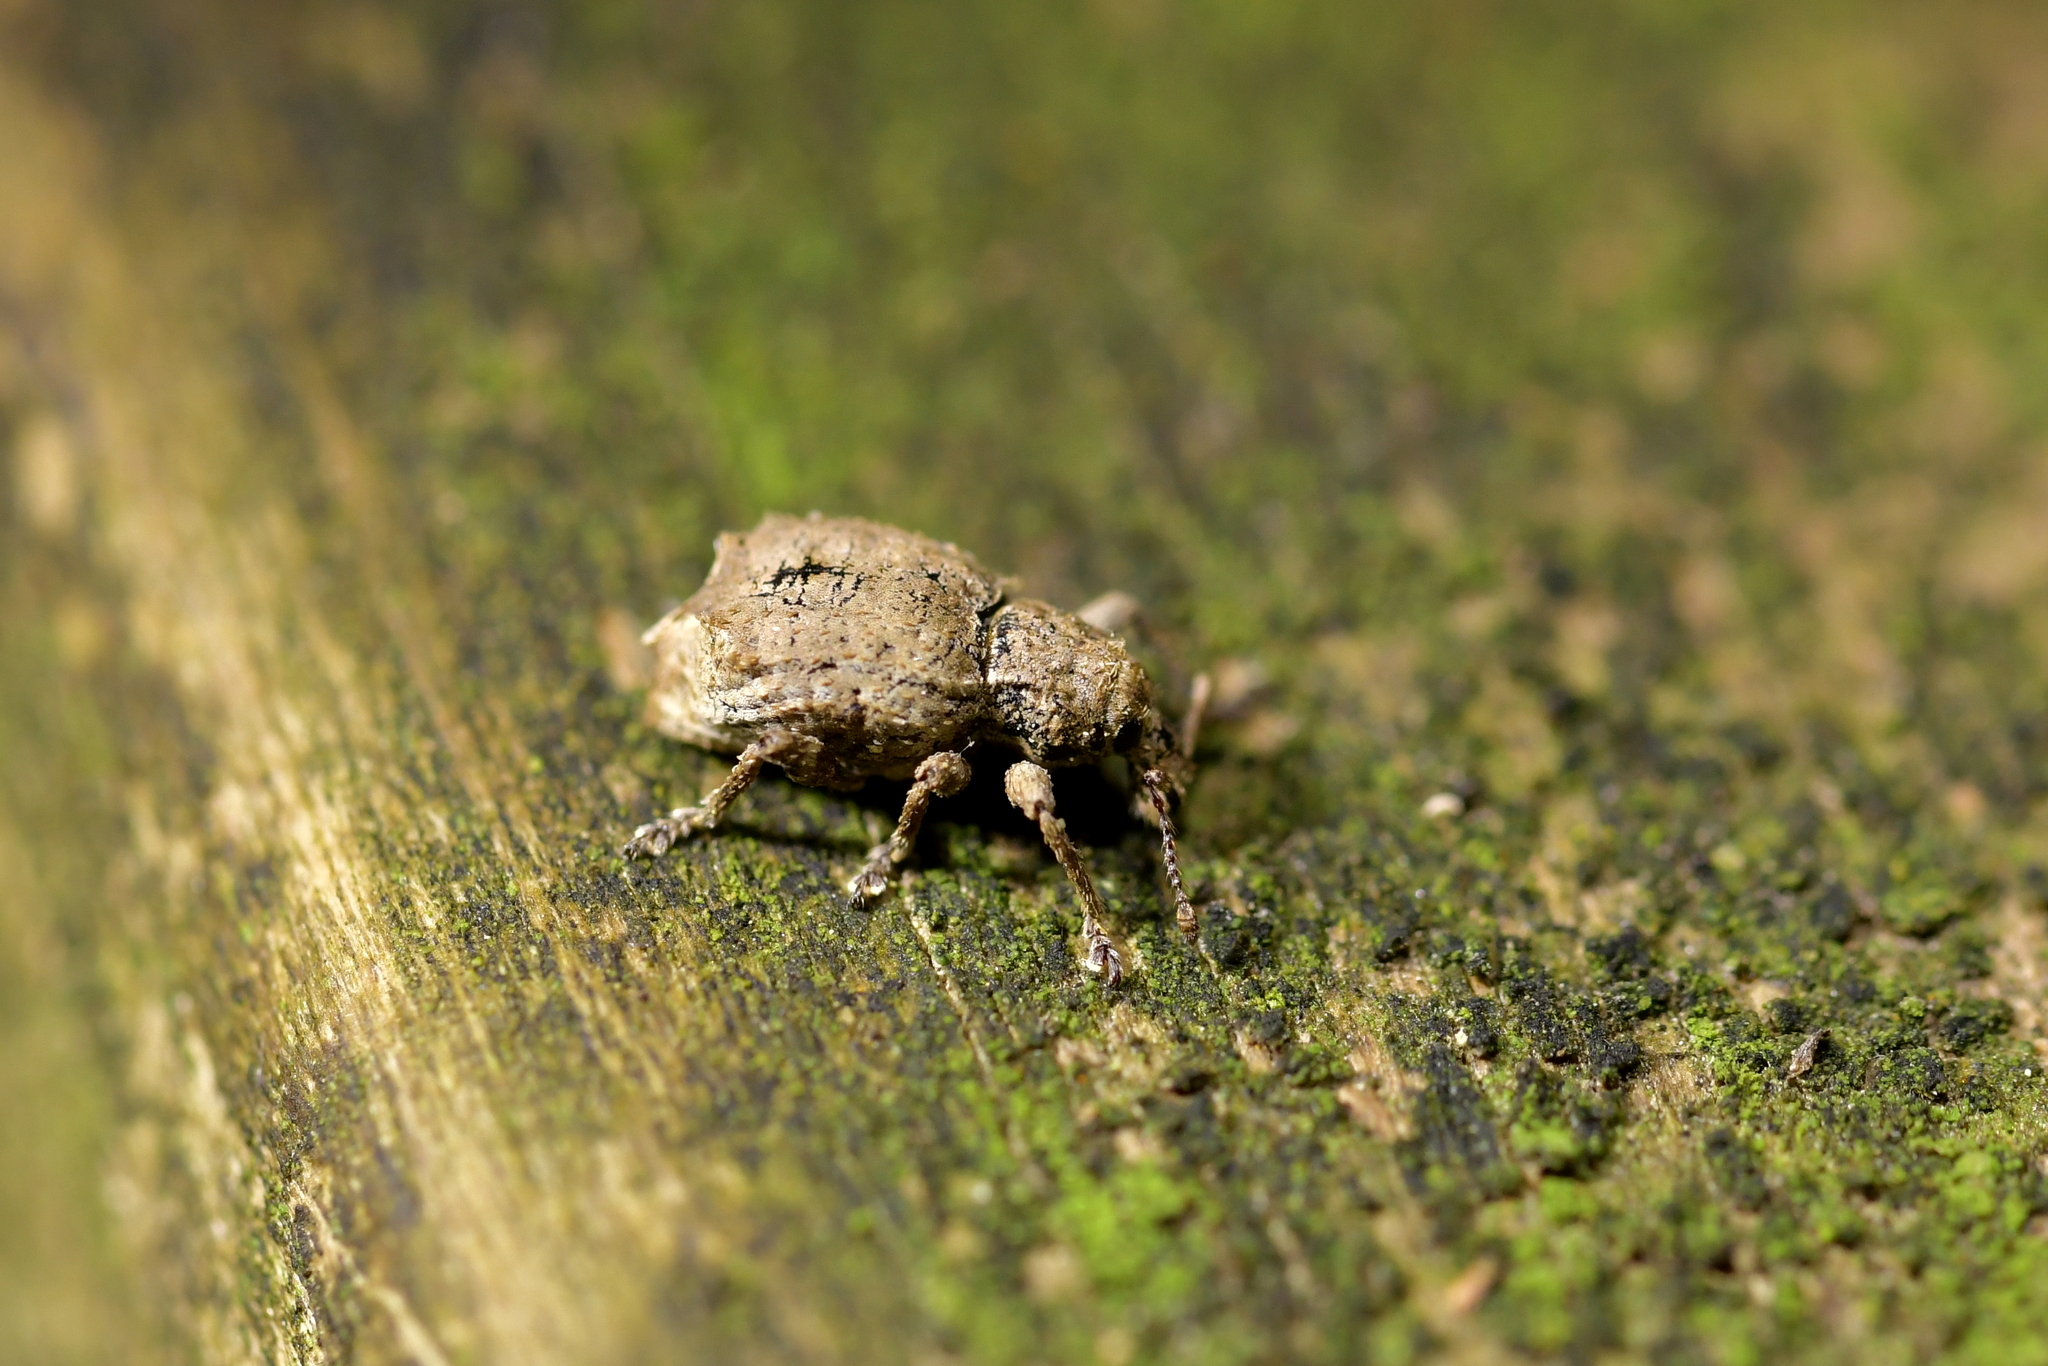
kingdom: Animalia
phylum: Arthropoda
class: Insecta
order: Coleoptera
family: Curculionidae
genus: Chalepistes
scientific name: Chalepistes costifer
